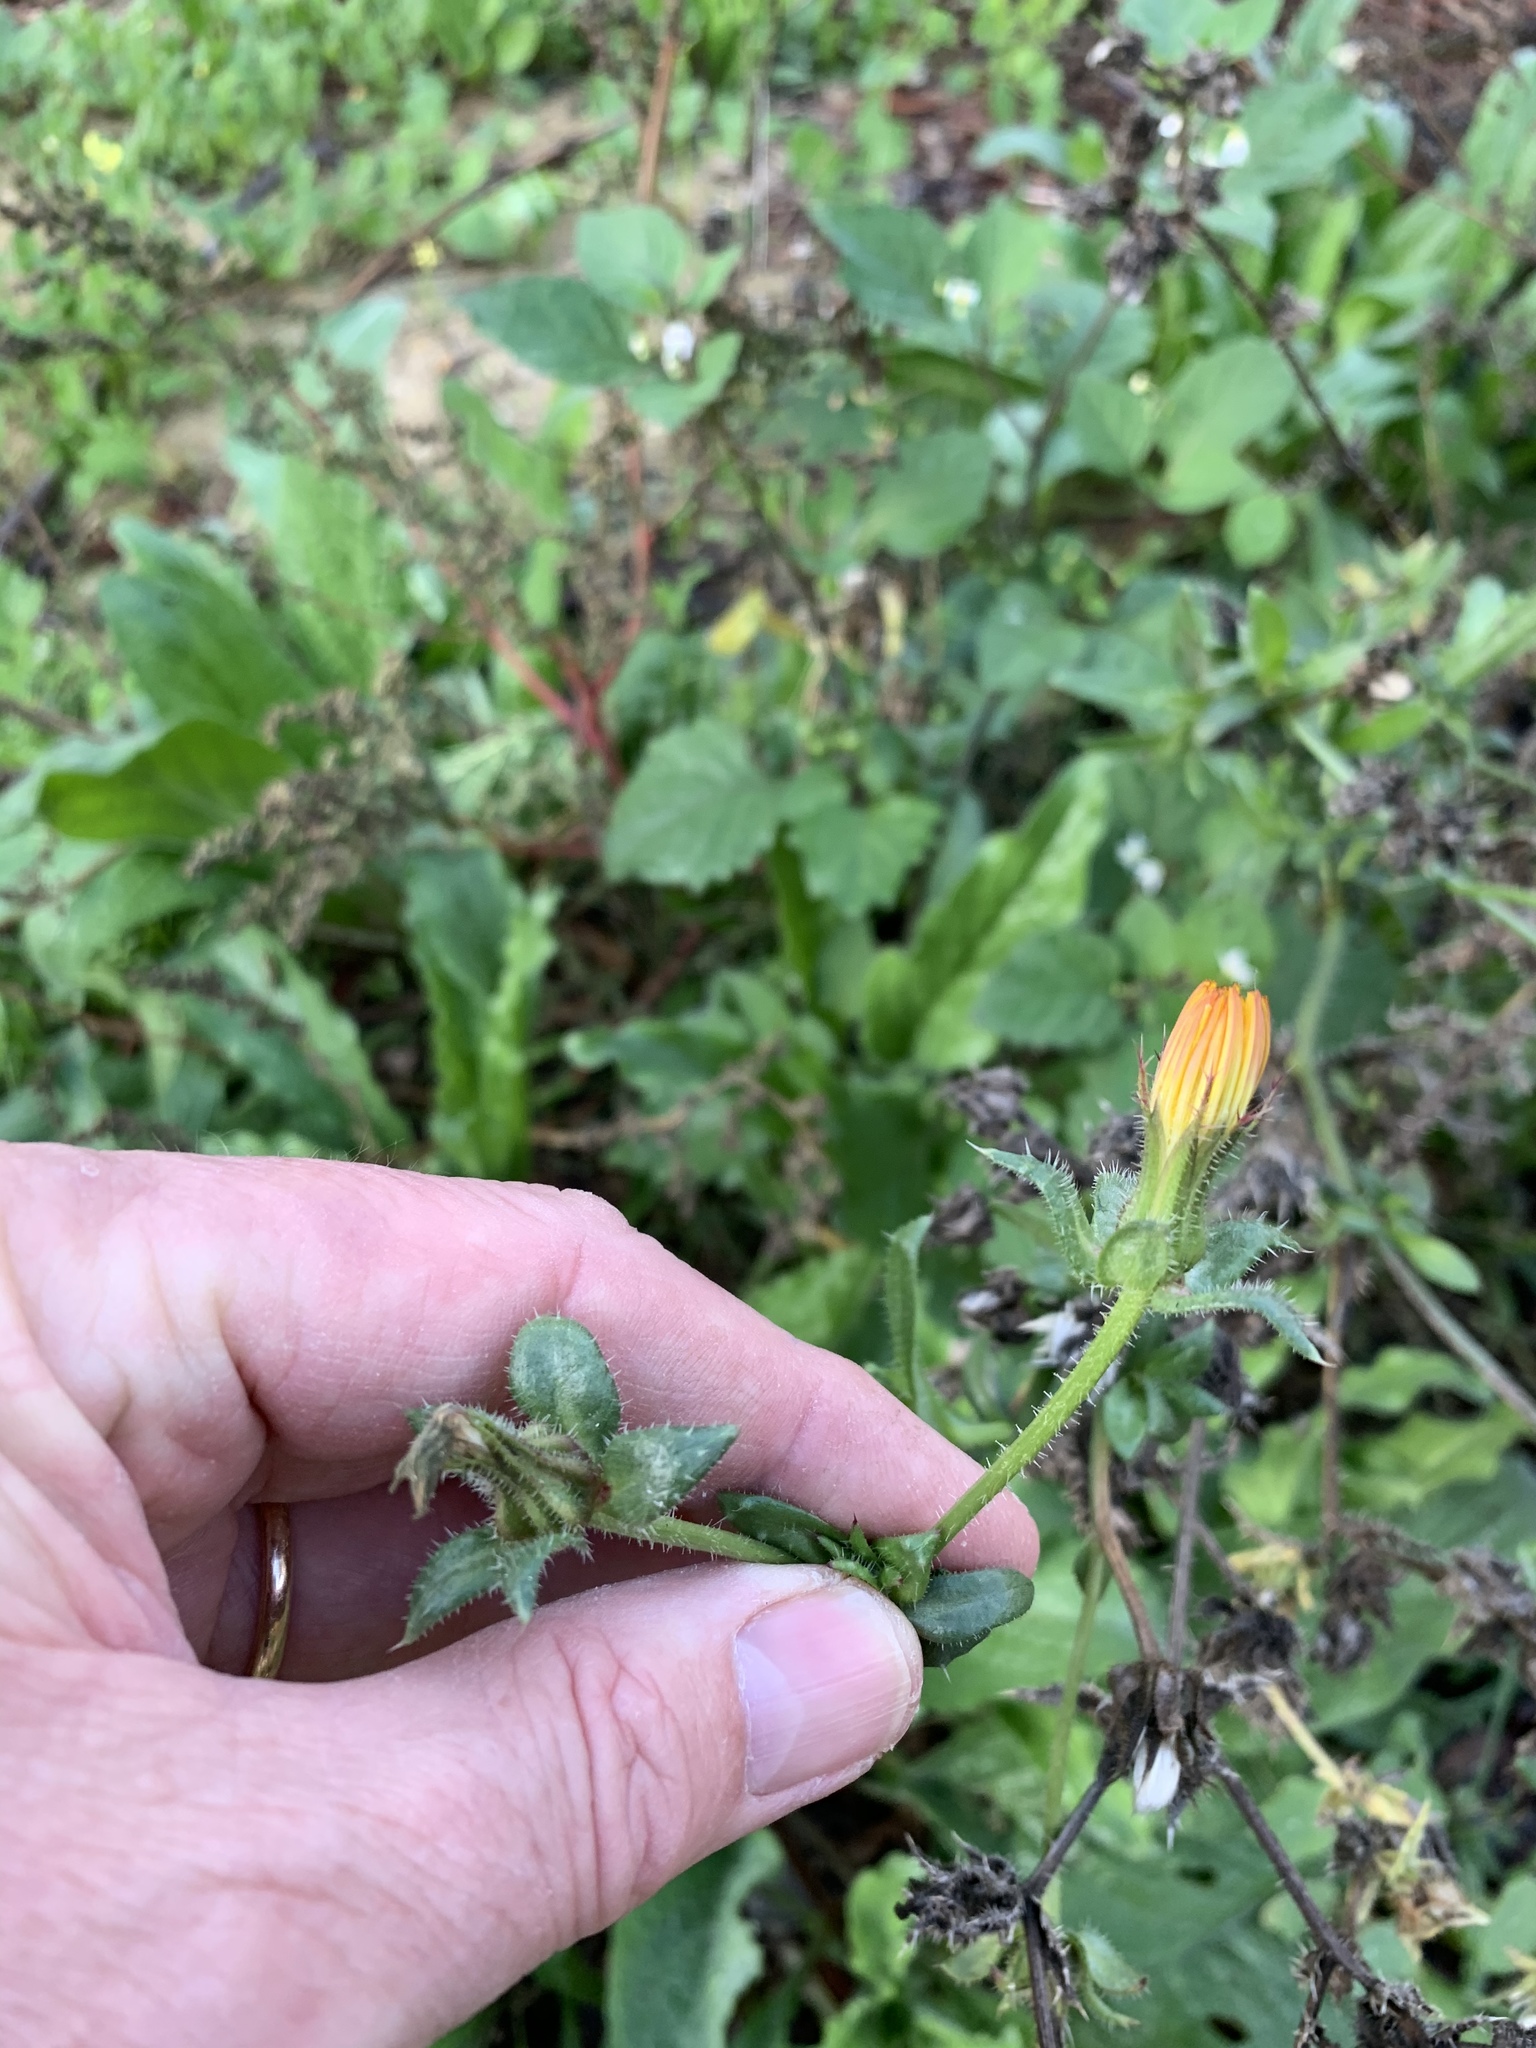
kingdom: Plantae
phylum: Tracheophyta
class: Magnoliopsida
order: Asterales
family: Asteraceae
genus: Helminthotheca
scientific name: Helminthotheca echioides
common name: Ox-tongue
